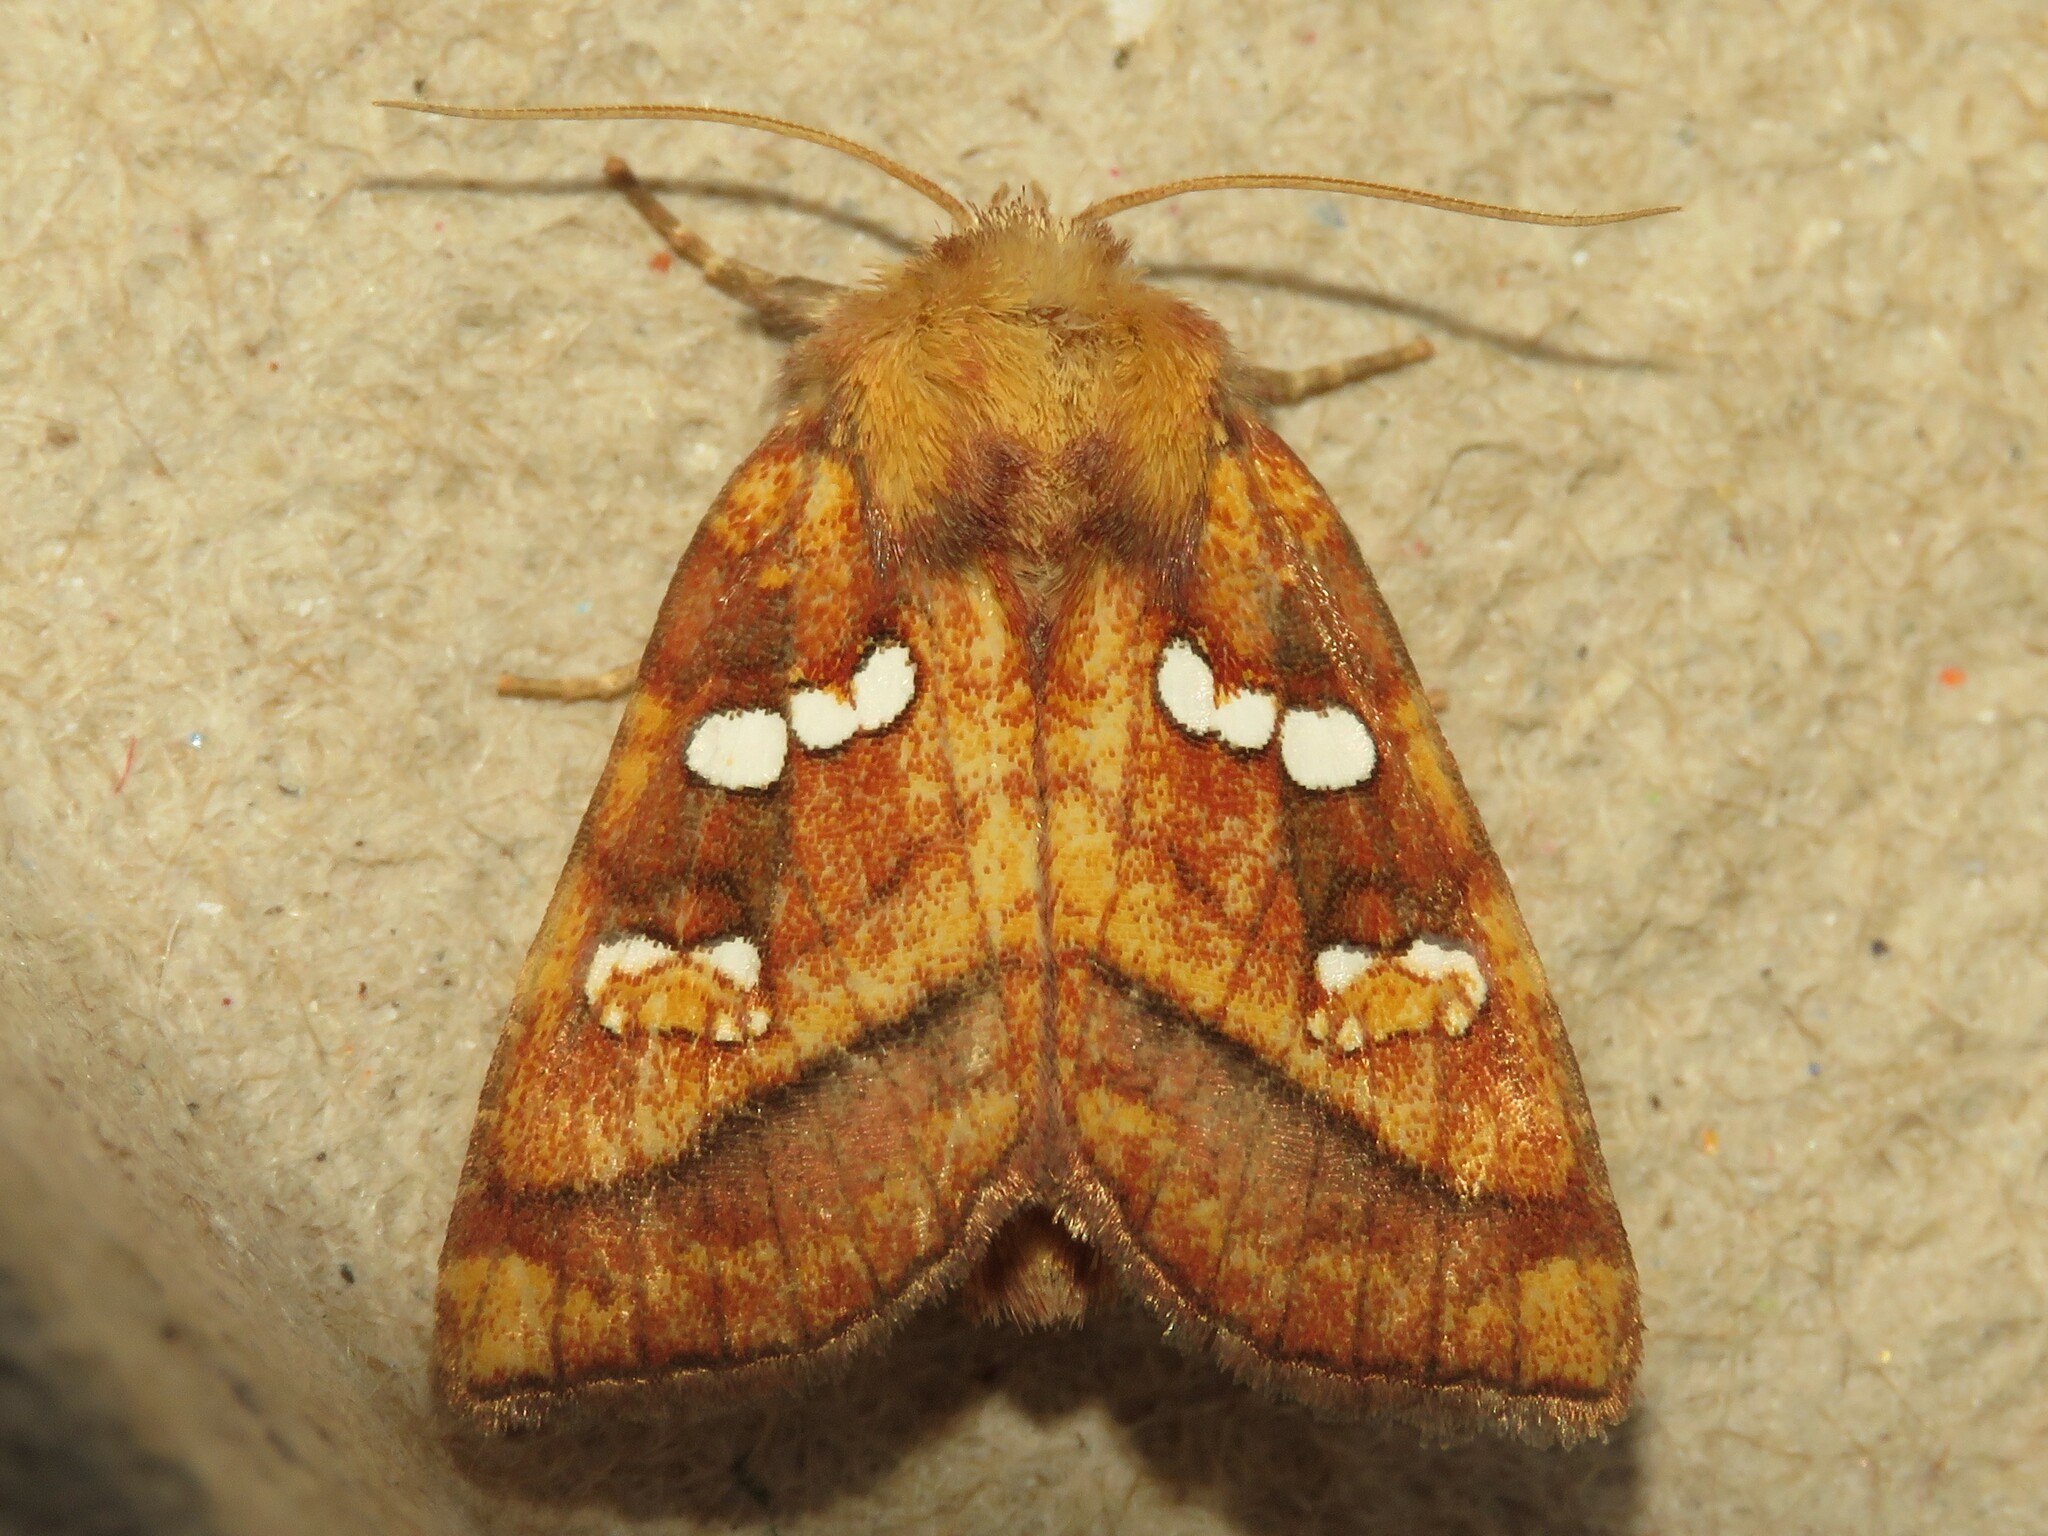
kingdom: Animalia
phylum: Arthropoda
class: Insecta
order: Lepidoptera
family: Noctuidae
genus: Papaipema
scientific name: Papaipema pterisii
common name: Bracken borer moth
